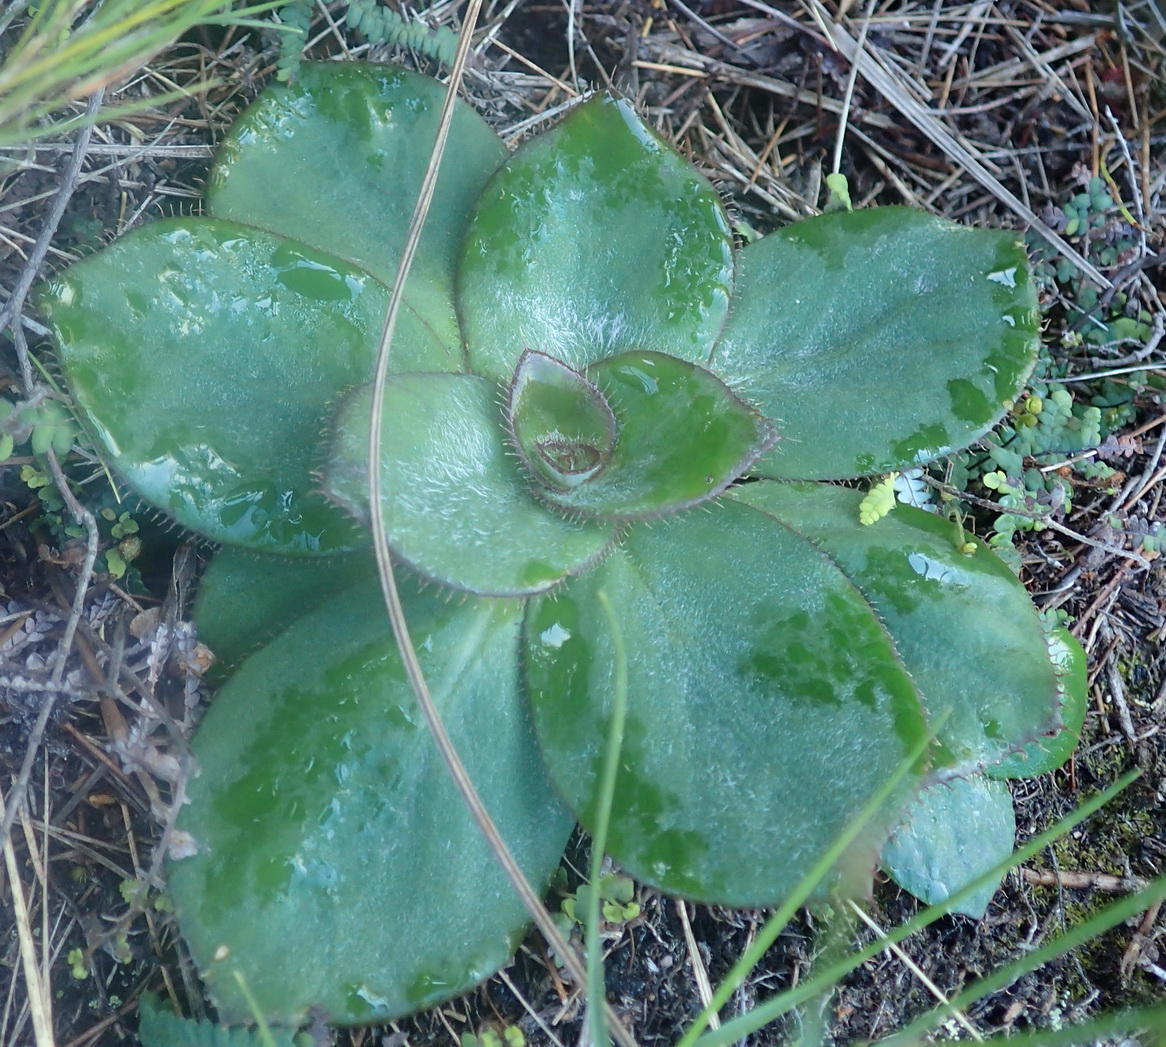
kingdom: Plantae
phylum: Tracheophyta
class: Magnoliopsida
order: Apiales
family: Apiaceae
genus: Hermas
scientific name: Hermas ciliata
